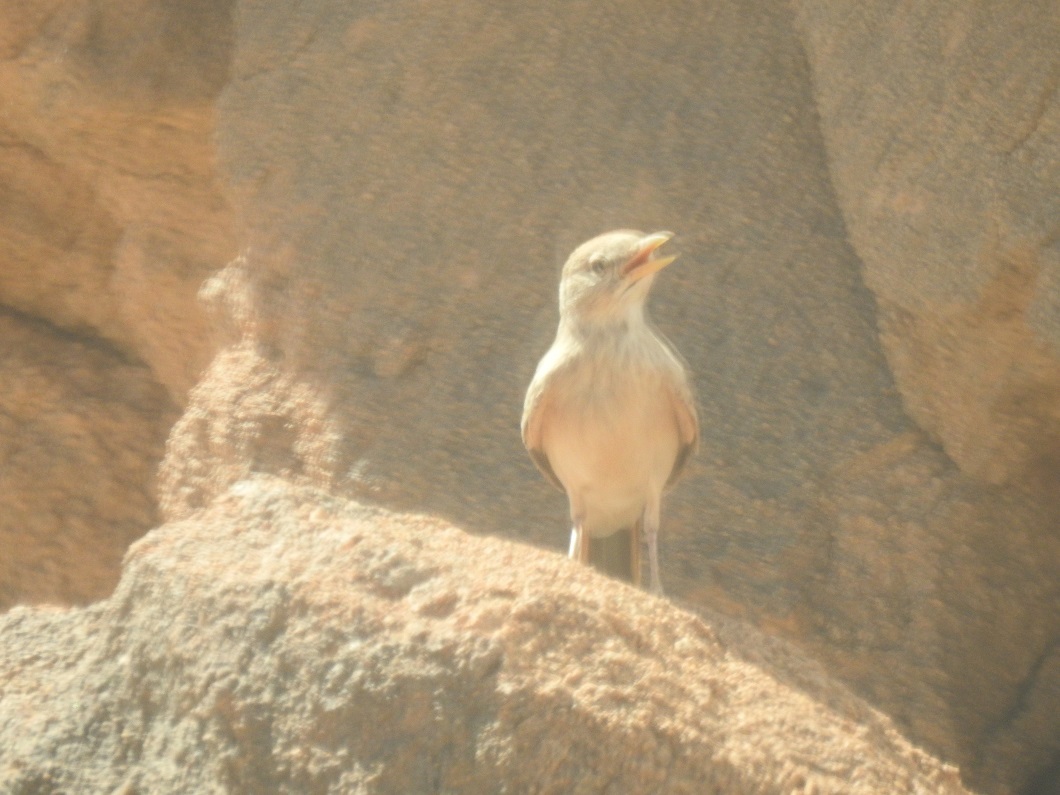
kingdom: Animalia
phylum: Chordata
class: Aves
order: Passeriformes
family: Alaudidae
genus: Ammomanes
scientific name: Ammomanes deserti
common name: Desert lark
